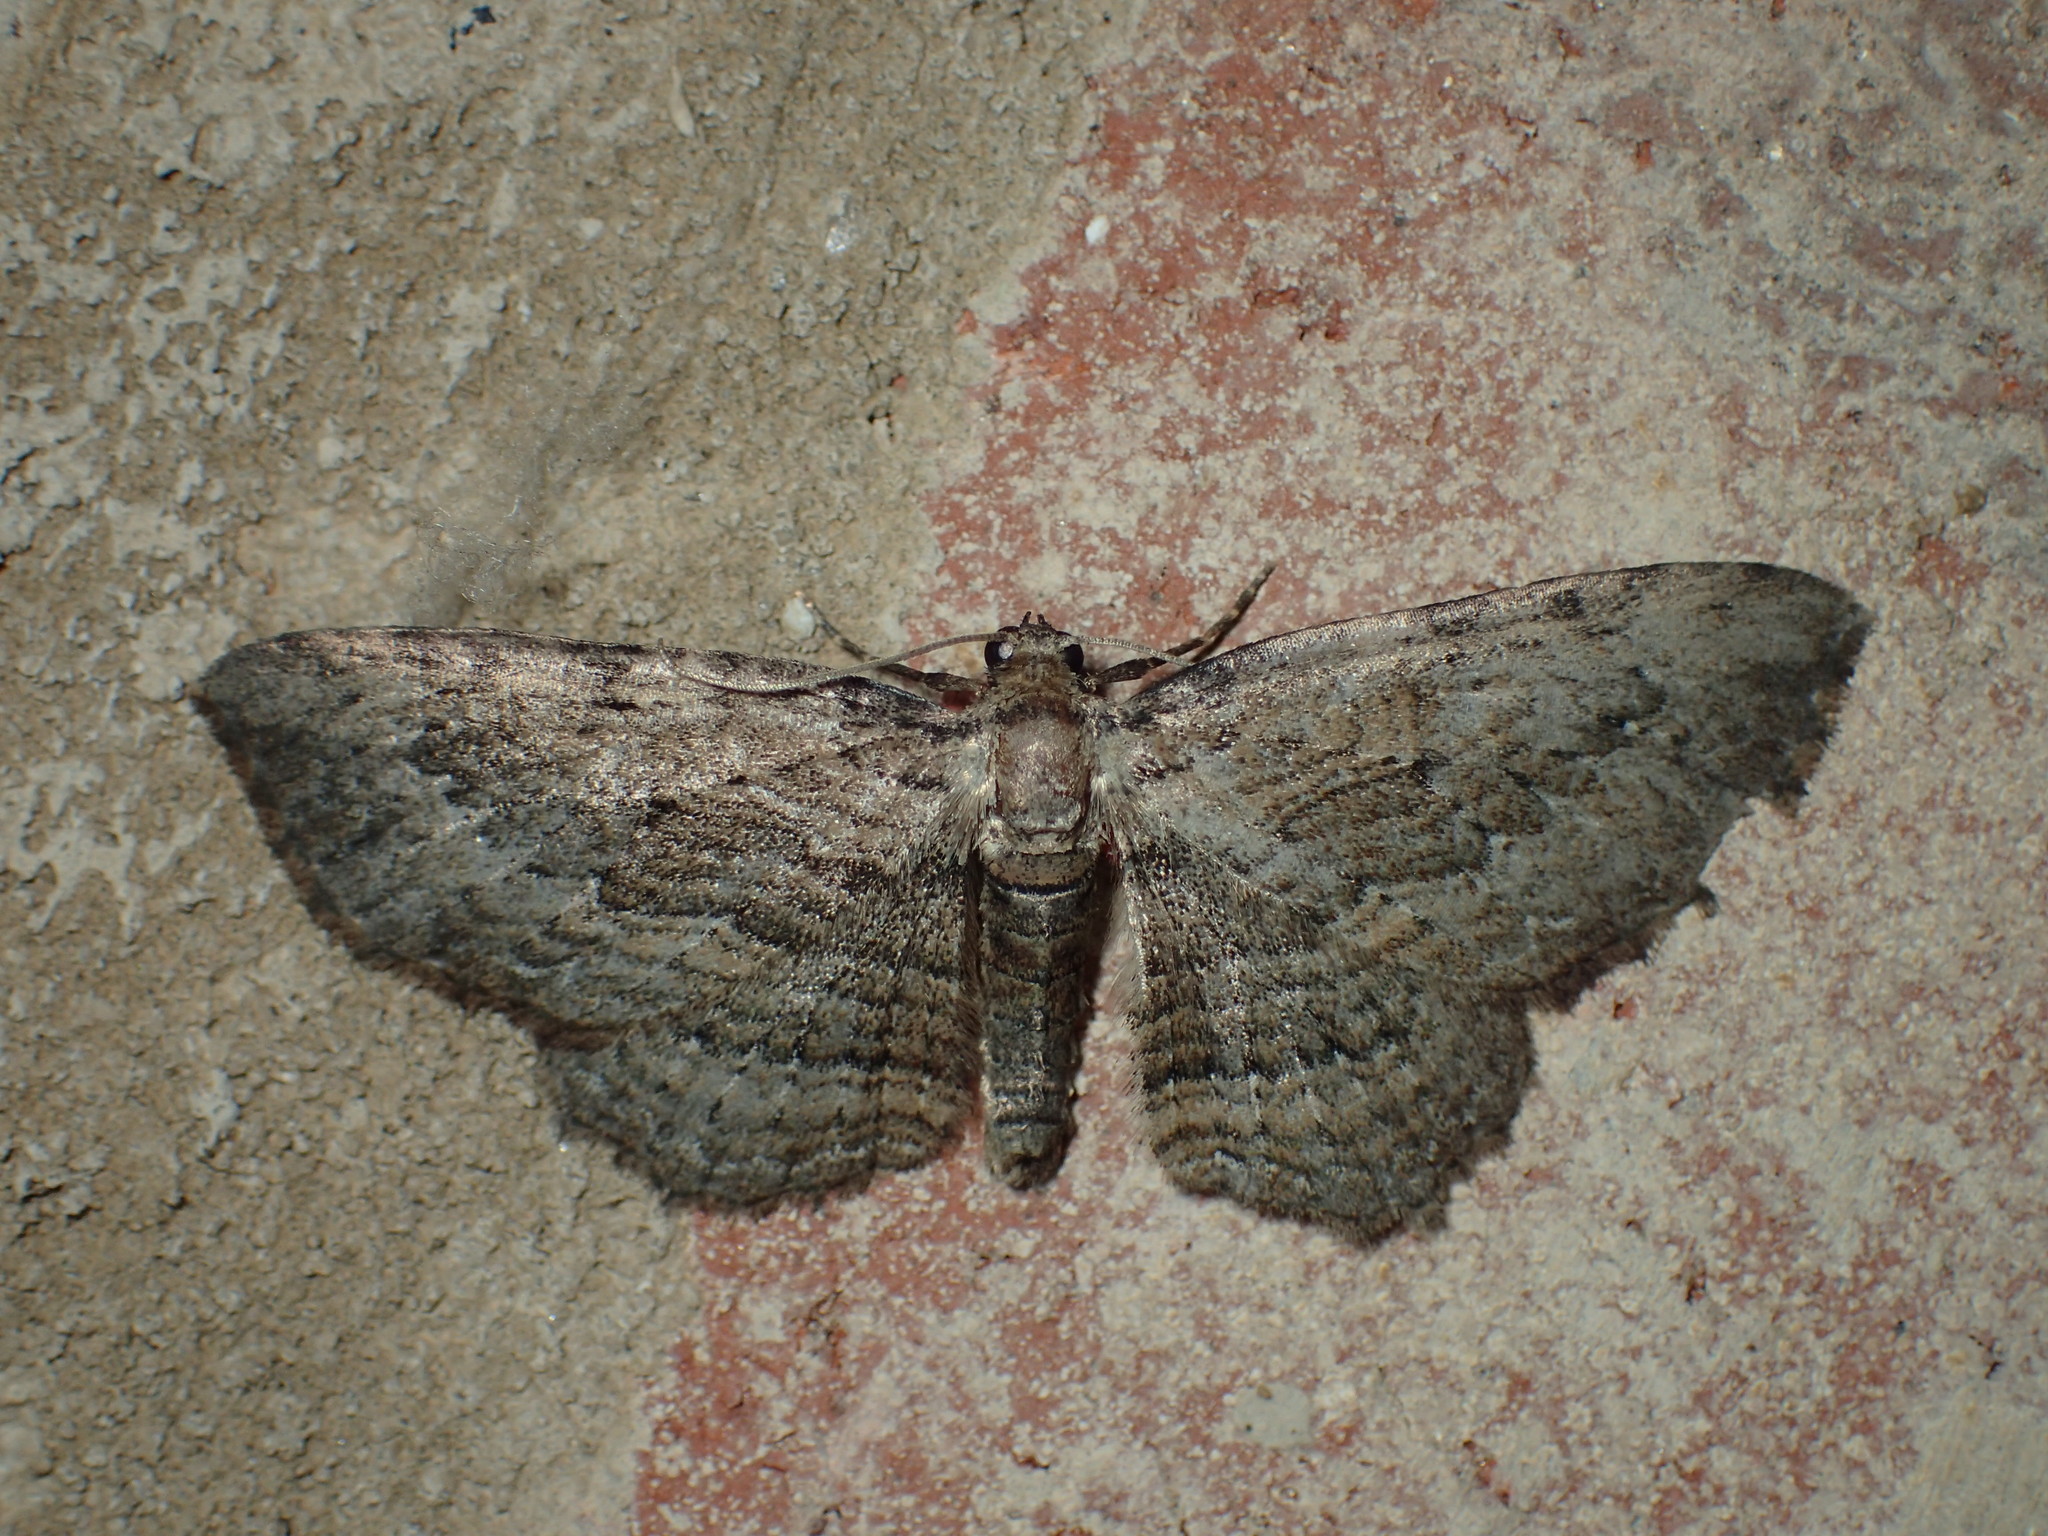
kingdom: Animalia
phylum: Arthropoda
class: Insecta
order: Lepidoptera
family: Geometridae
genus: Horisme
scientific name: Horisme intestinata
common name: Brown bark carpet
